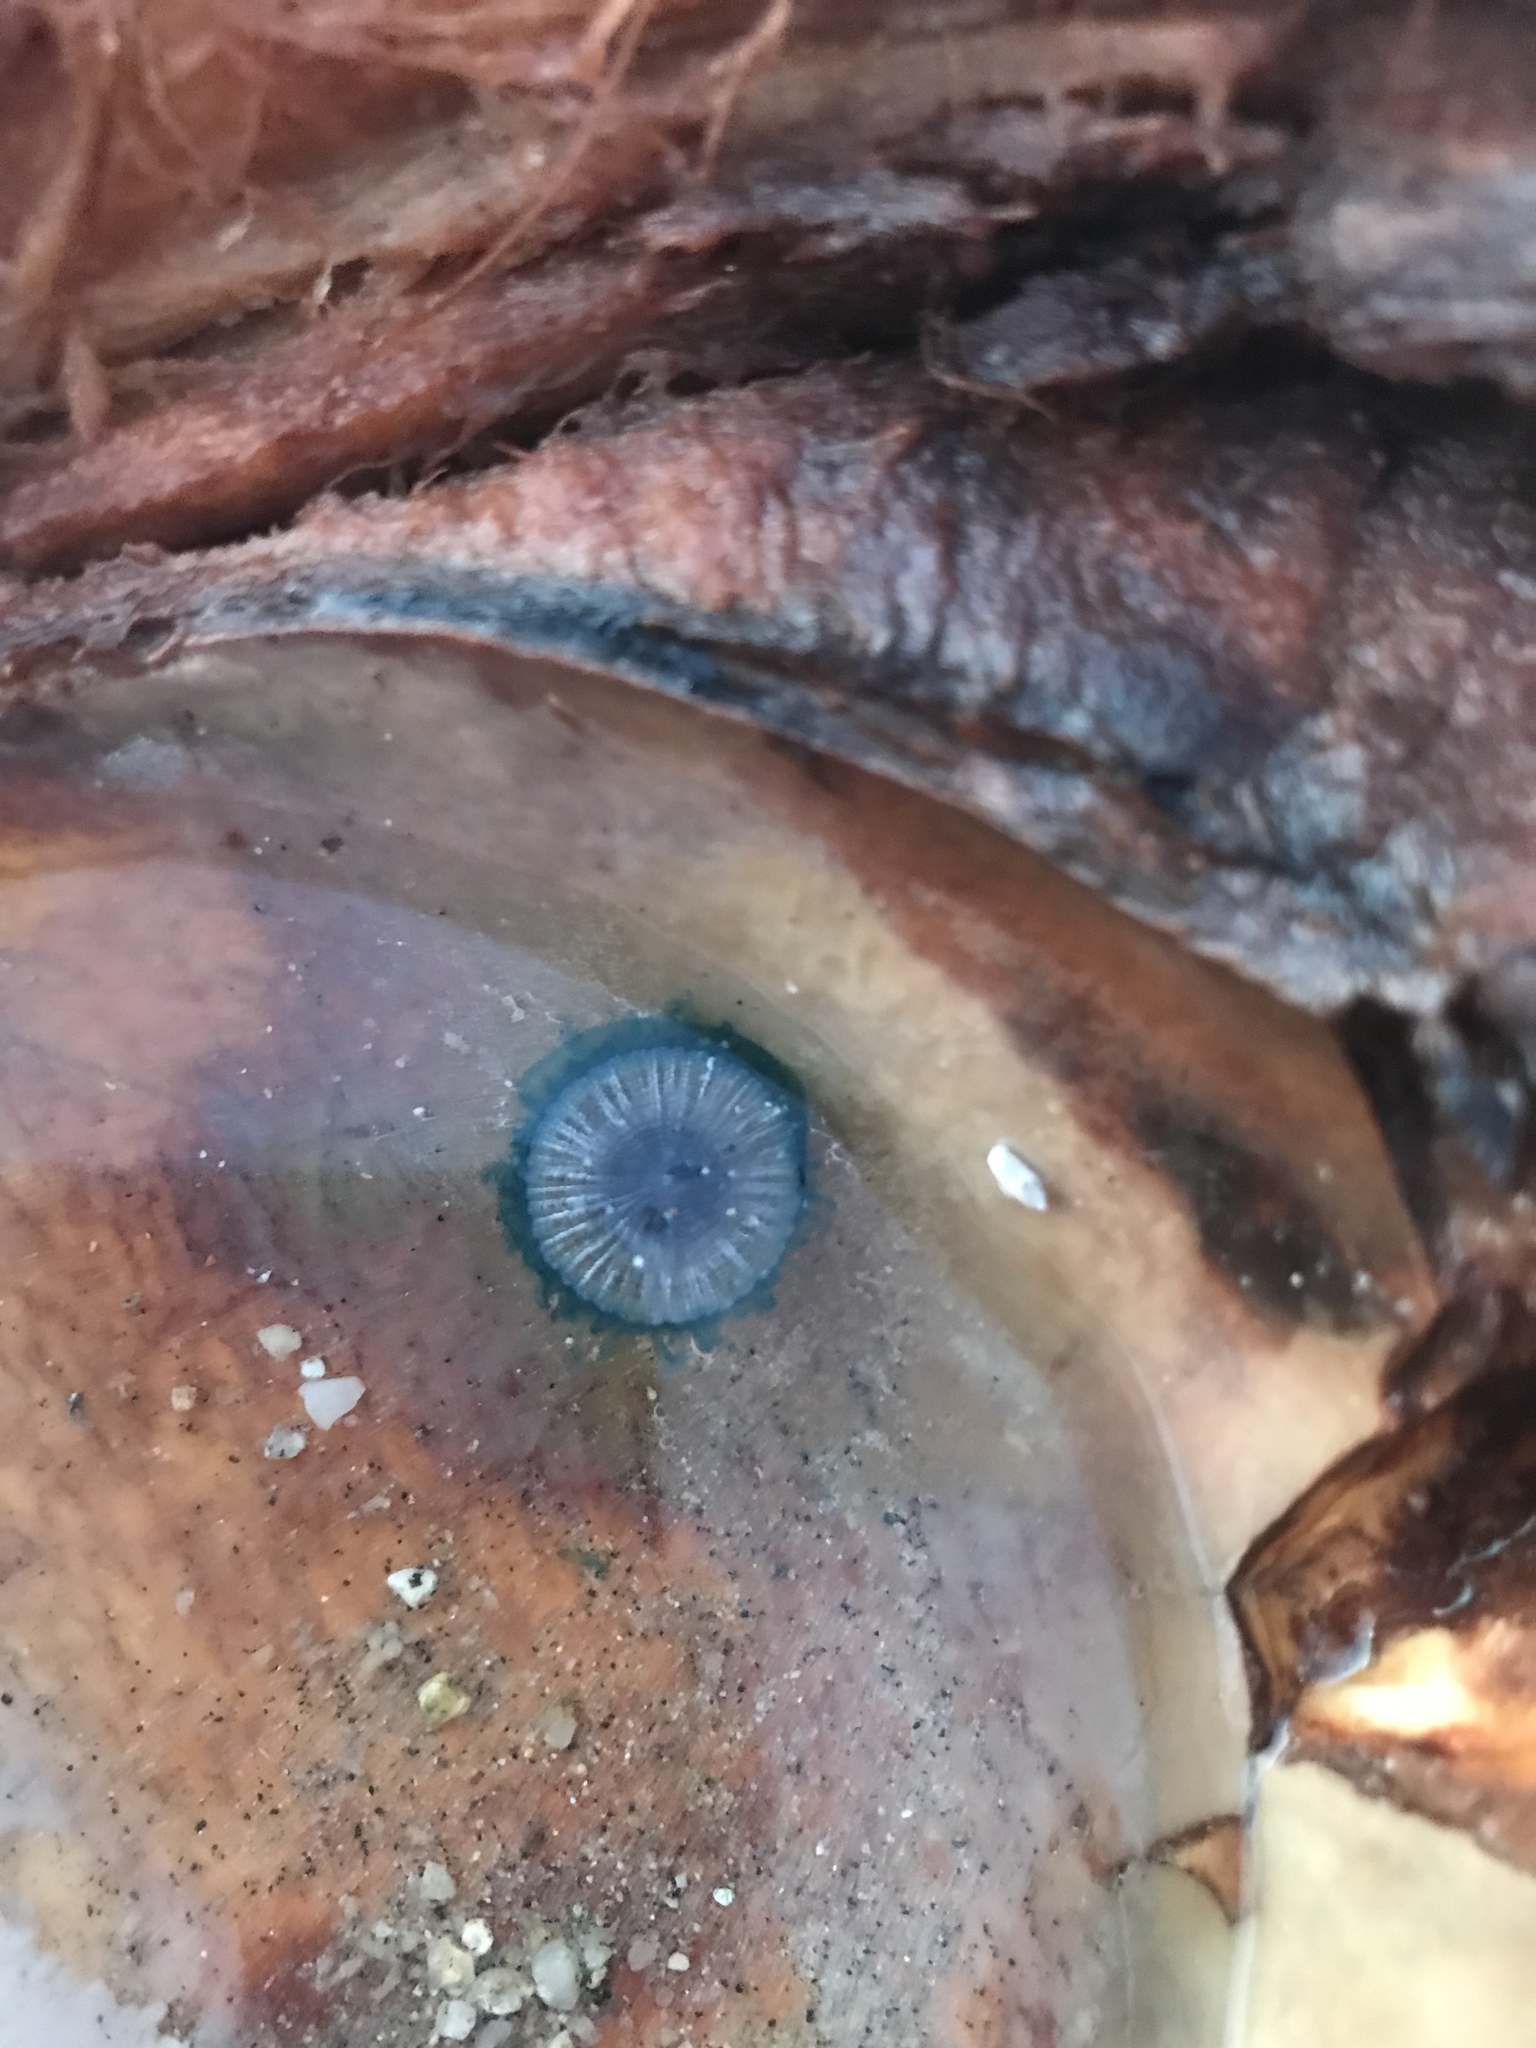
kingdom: Animalia
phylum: Cnidaria
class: Hydrozoa
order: Anthoathecata
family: Porpitidae
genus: Porpita
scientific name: Porpita porpita
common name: Blue button
